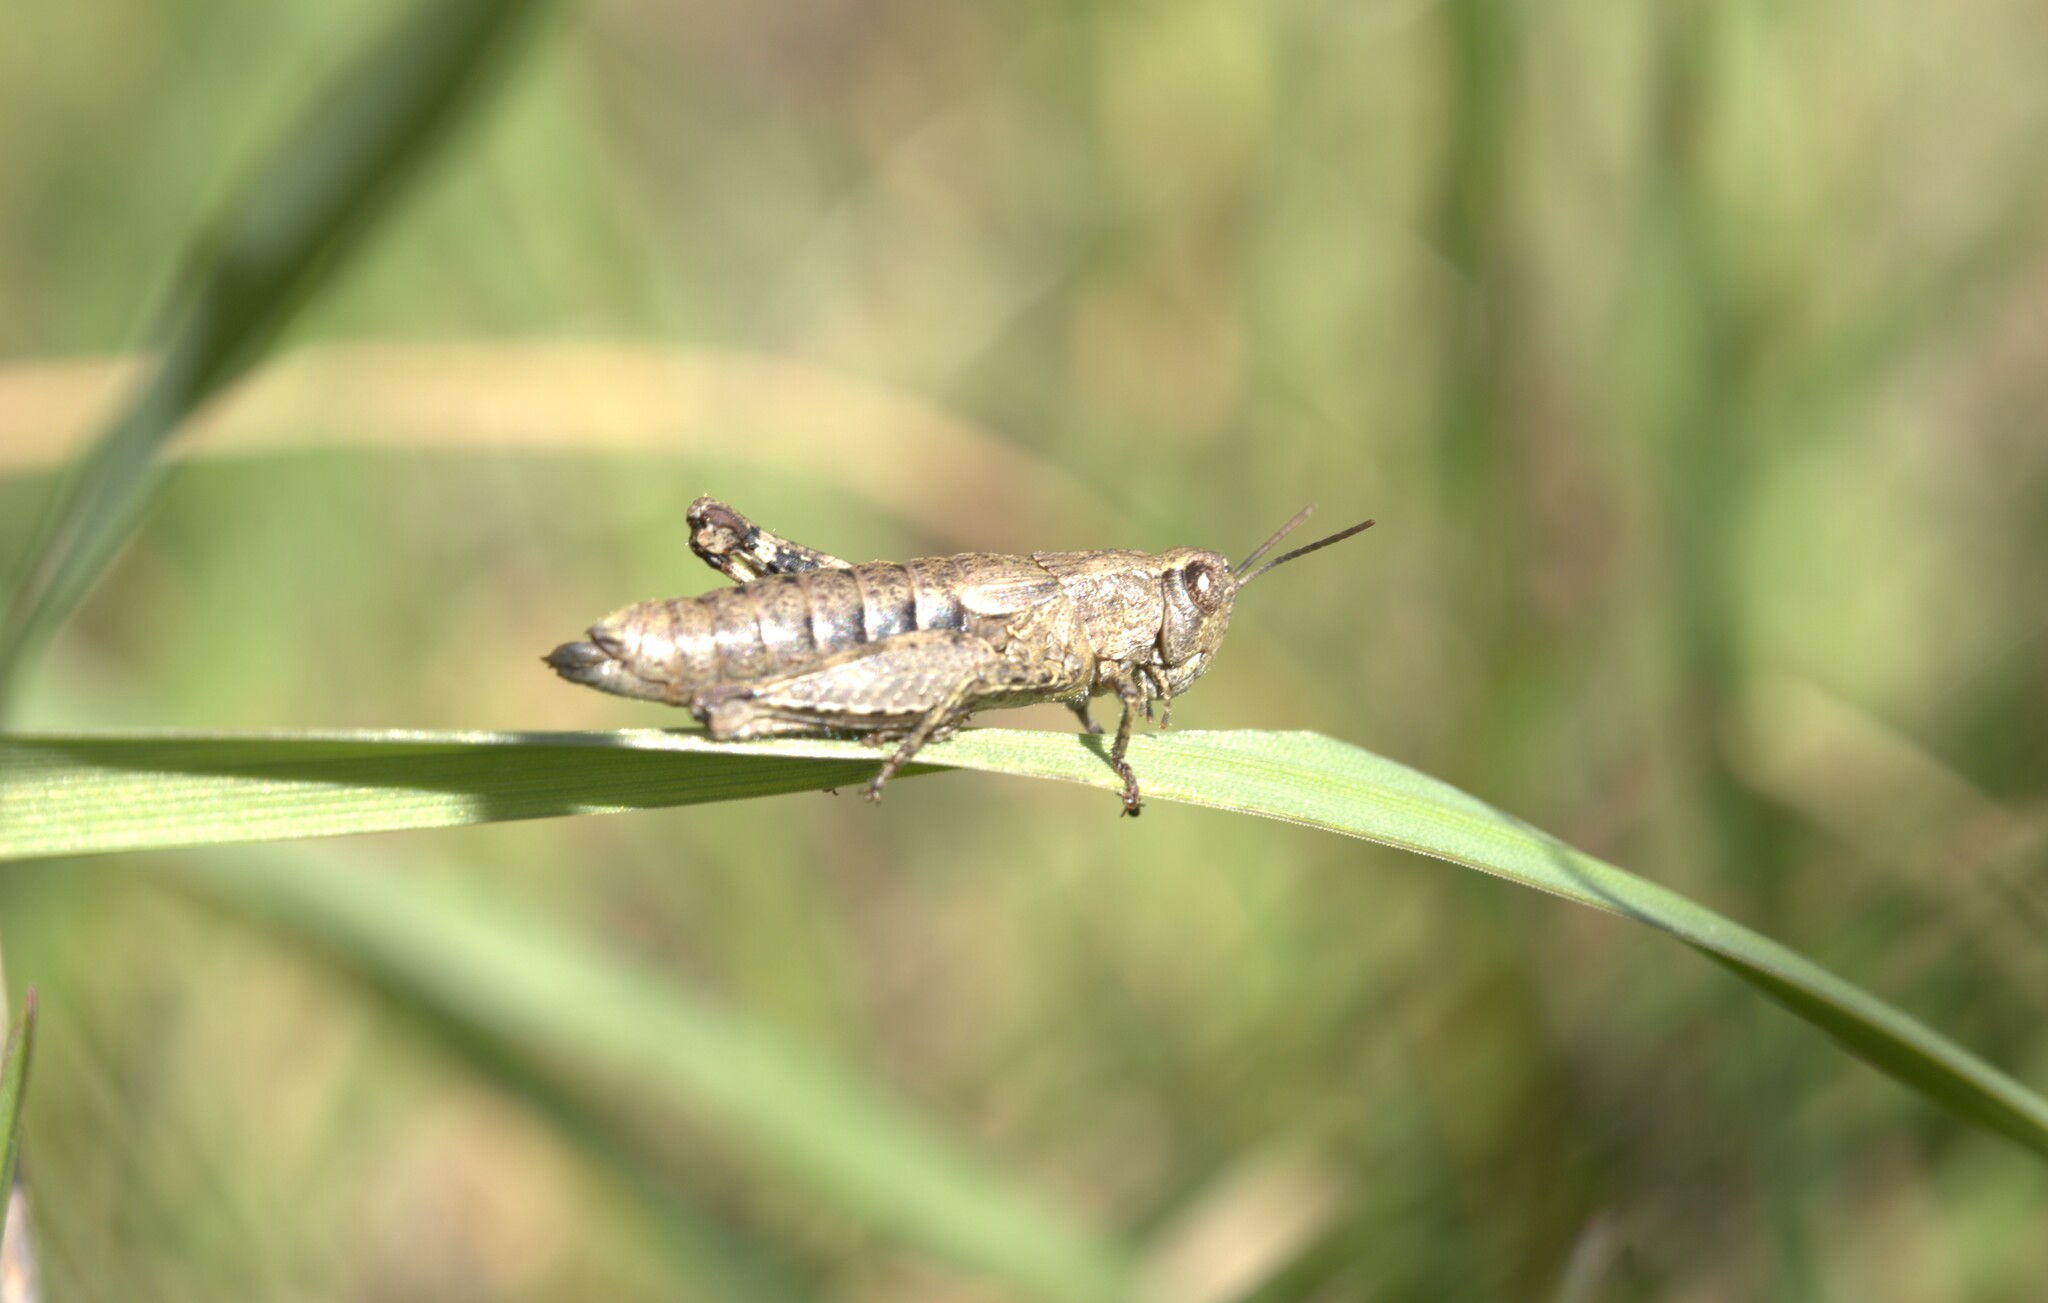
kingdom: Animalia
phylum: Arthropoda
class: Insecta
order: Orthoptera
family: Acrididae
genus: Pezotettix
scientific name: Pezotettix giornae
